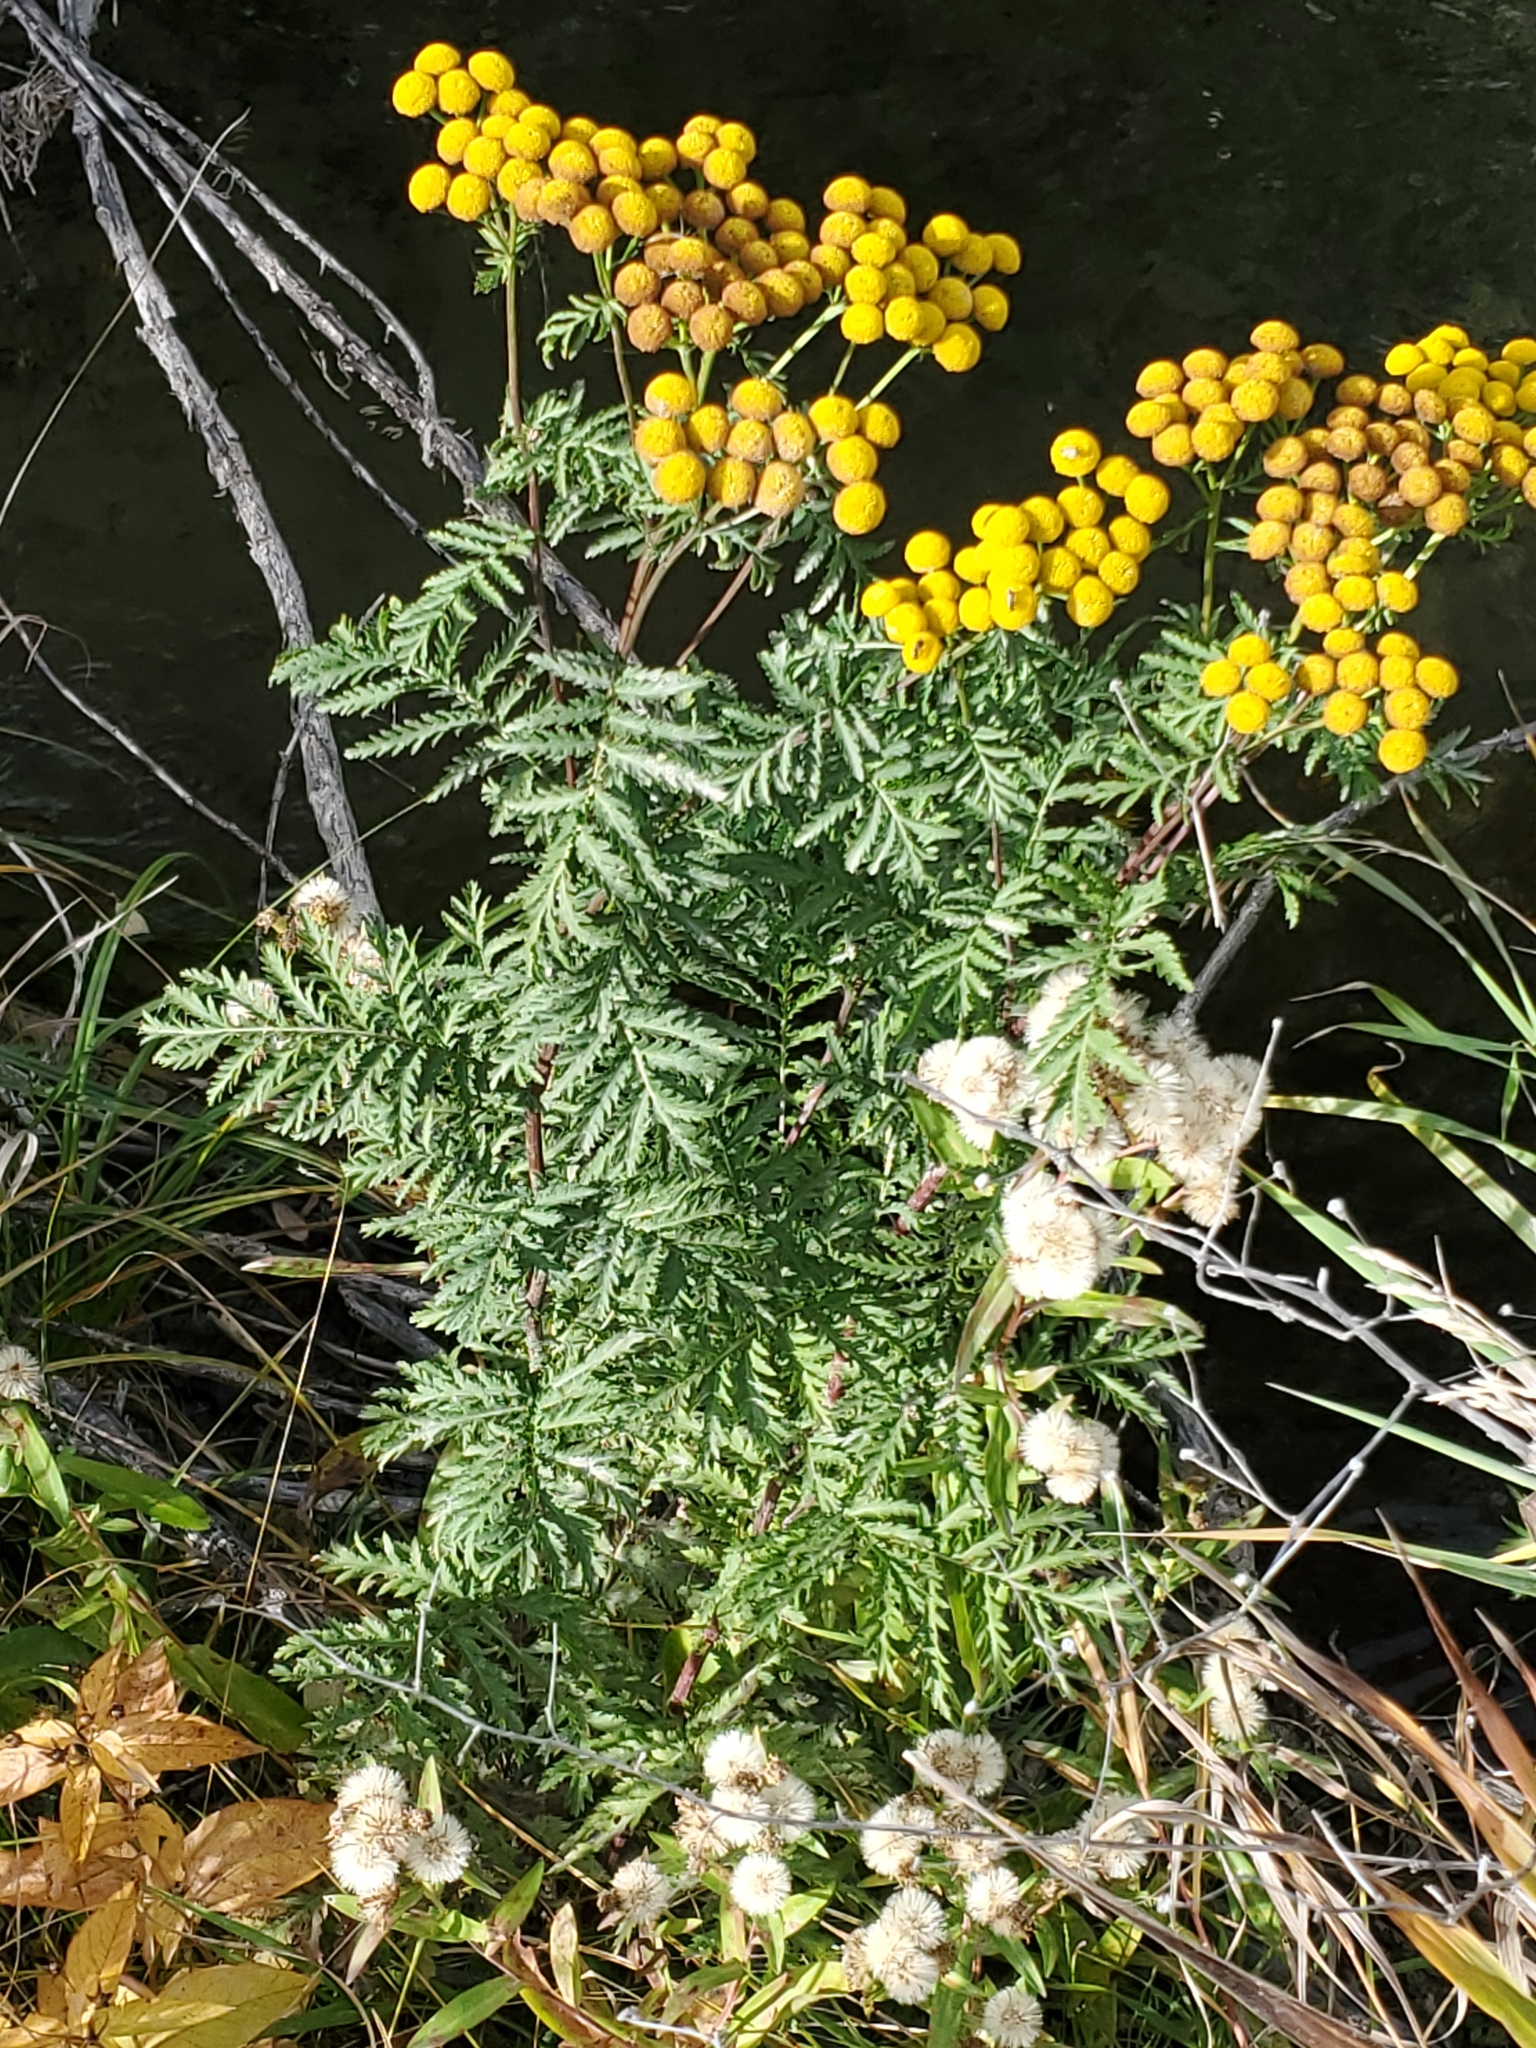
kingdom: Plantae
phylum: Tracheophyta
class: Magnoliopsida
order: Asterales
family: Asteraceae
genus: Tanacetum
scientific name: Tanacetum vulgare
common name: Common tansy
